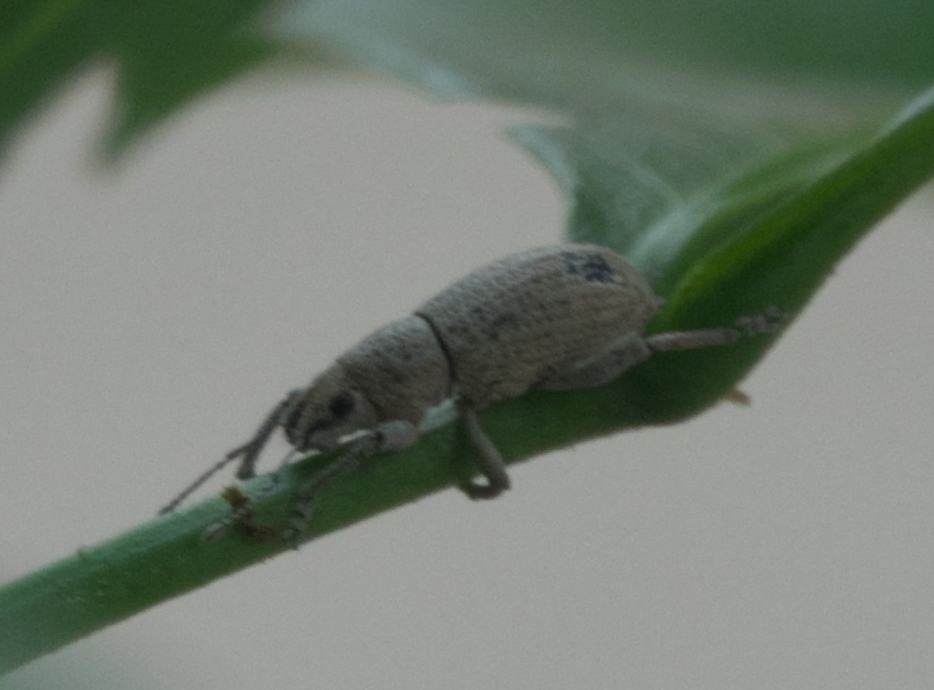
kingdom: Animalia
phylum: Arthropoda
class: Insecta
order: Coleoptera
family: Curculionidae
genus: Artipus
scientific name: Artipus floridanus
